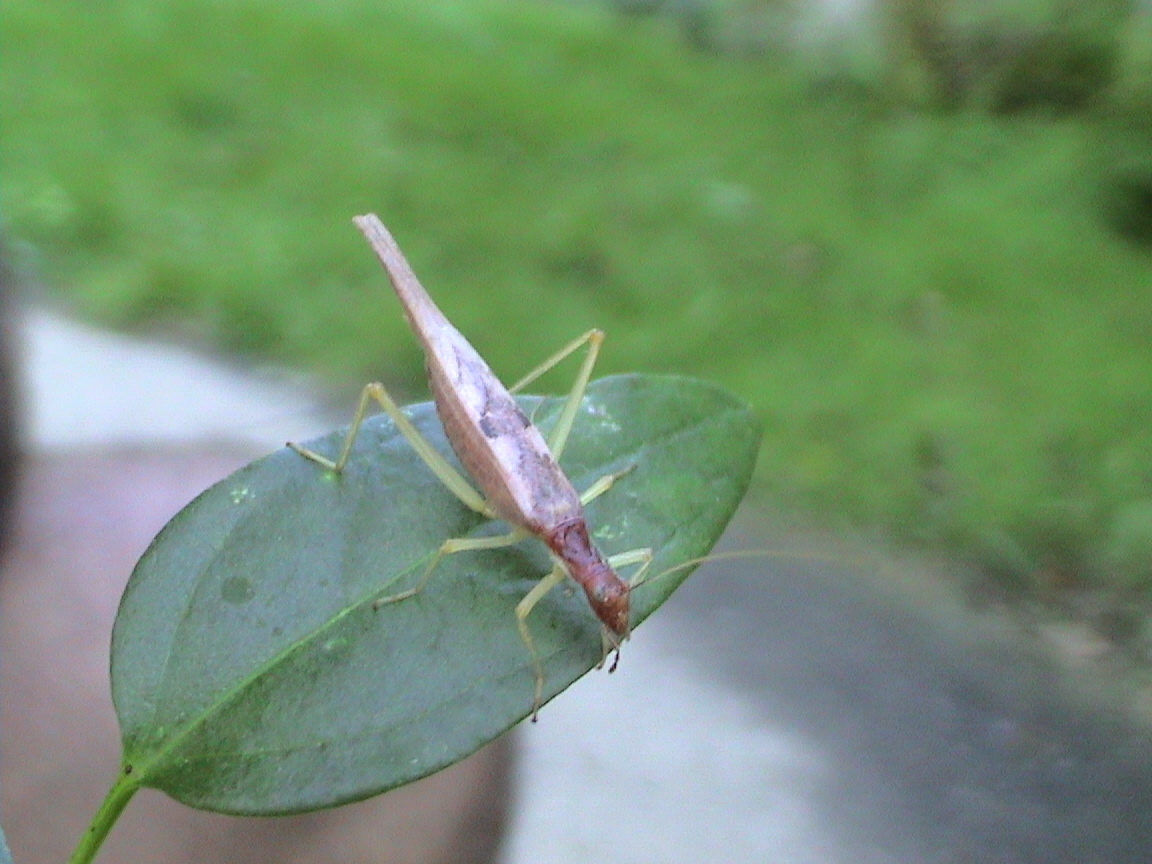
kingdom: Animalia
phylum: Arthropoda
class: Insecta
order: Orthoptera
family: Gryllidae
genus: Neoxabea
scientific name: Neoxabea bipunctata
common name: Two-spotted tree cricket
